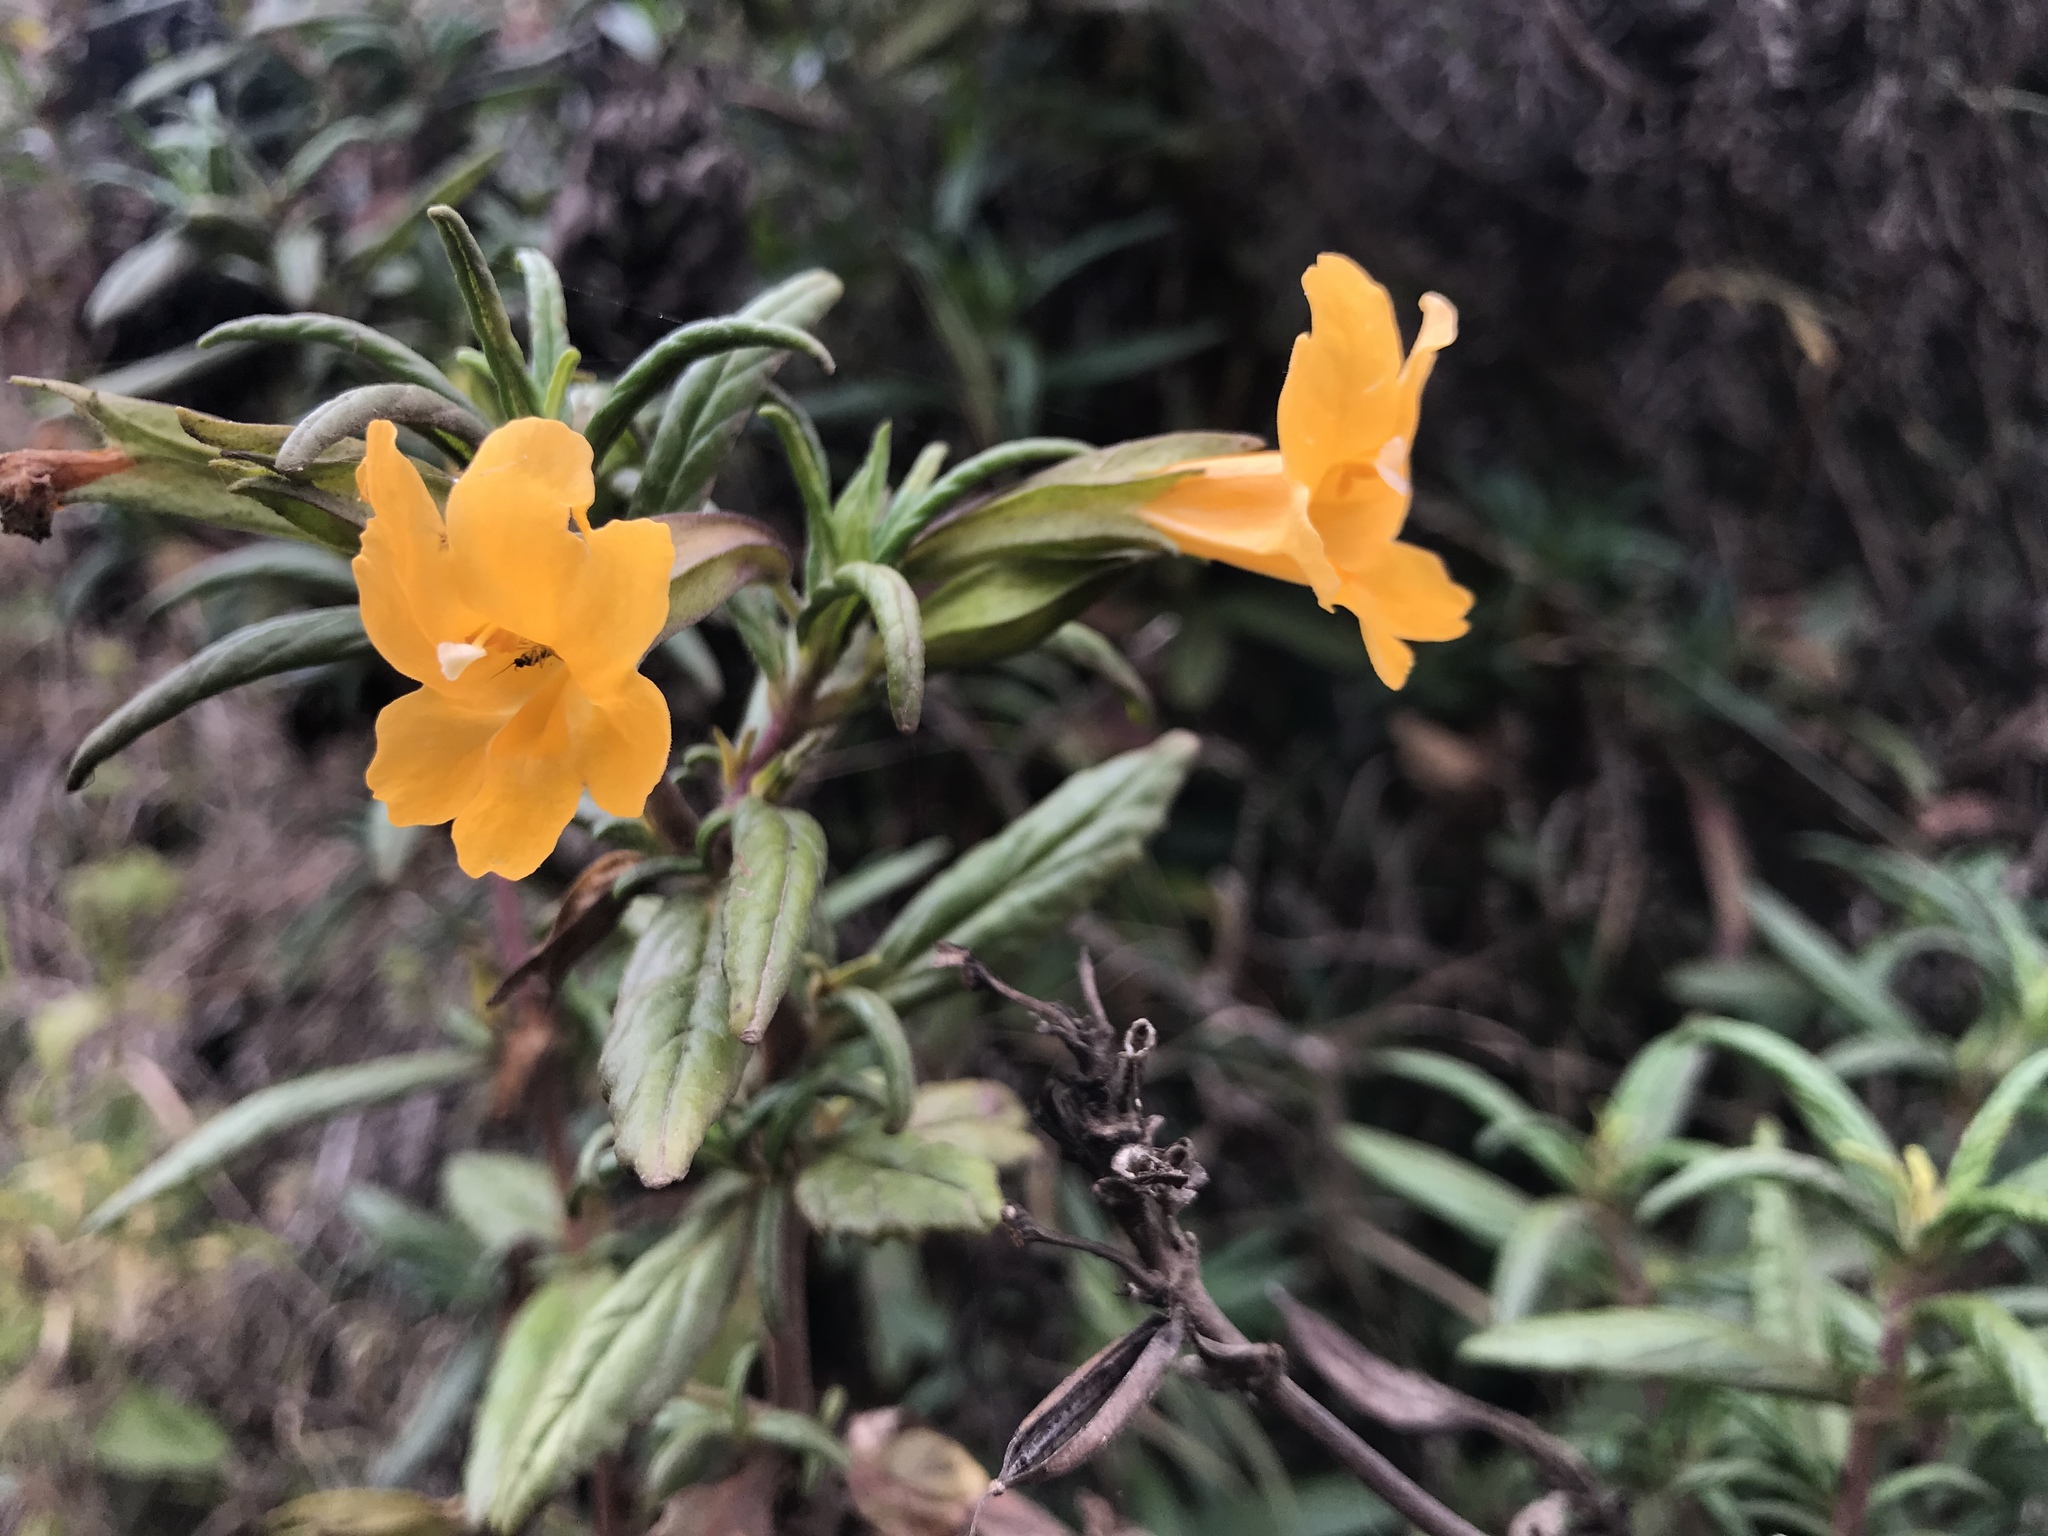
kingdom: Plantae
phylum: Tracheophyta
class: Magnoliopsida
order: Lamiales
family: Phrymaceae
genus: Diplacus
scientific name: Diplacus aurantiacus
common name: Bush monkey-flower
